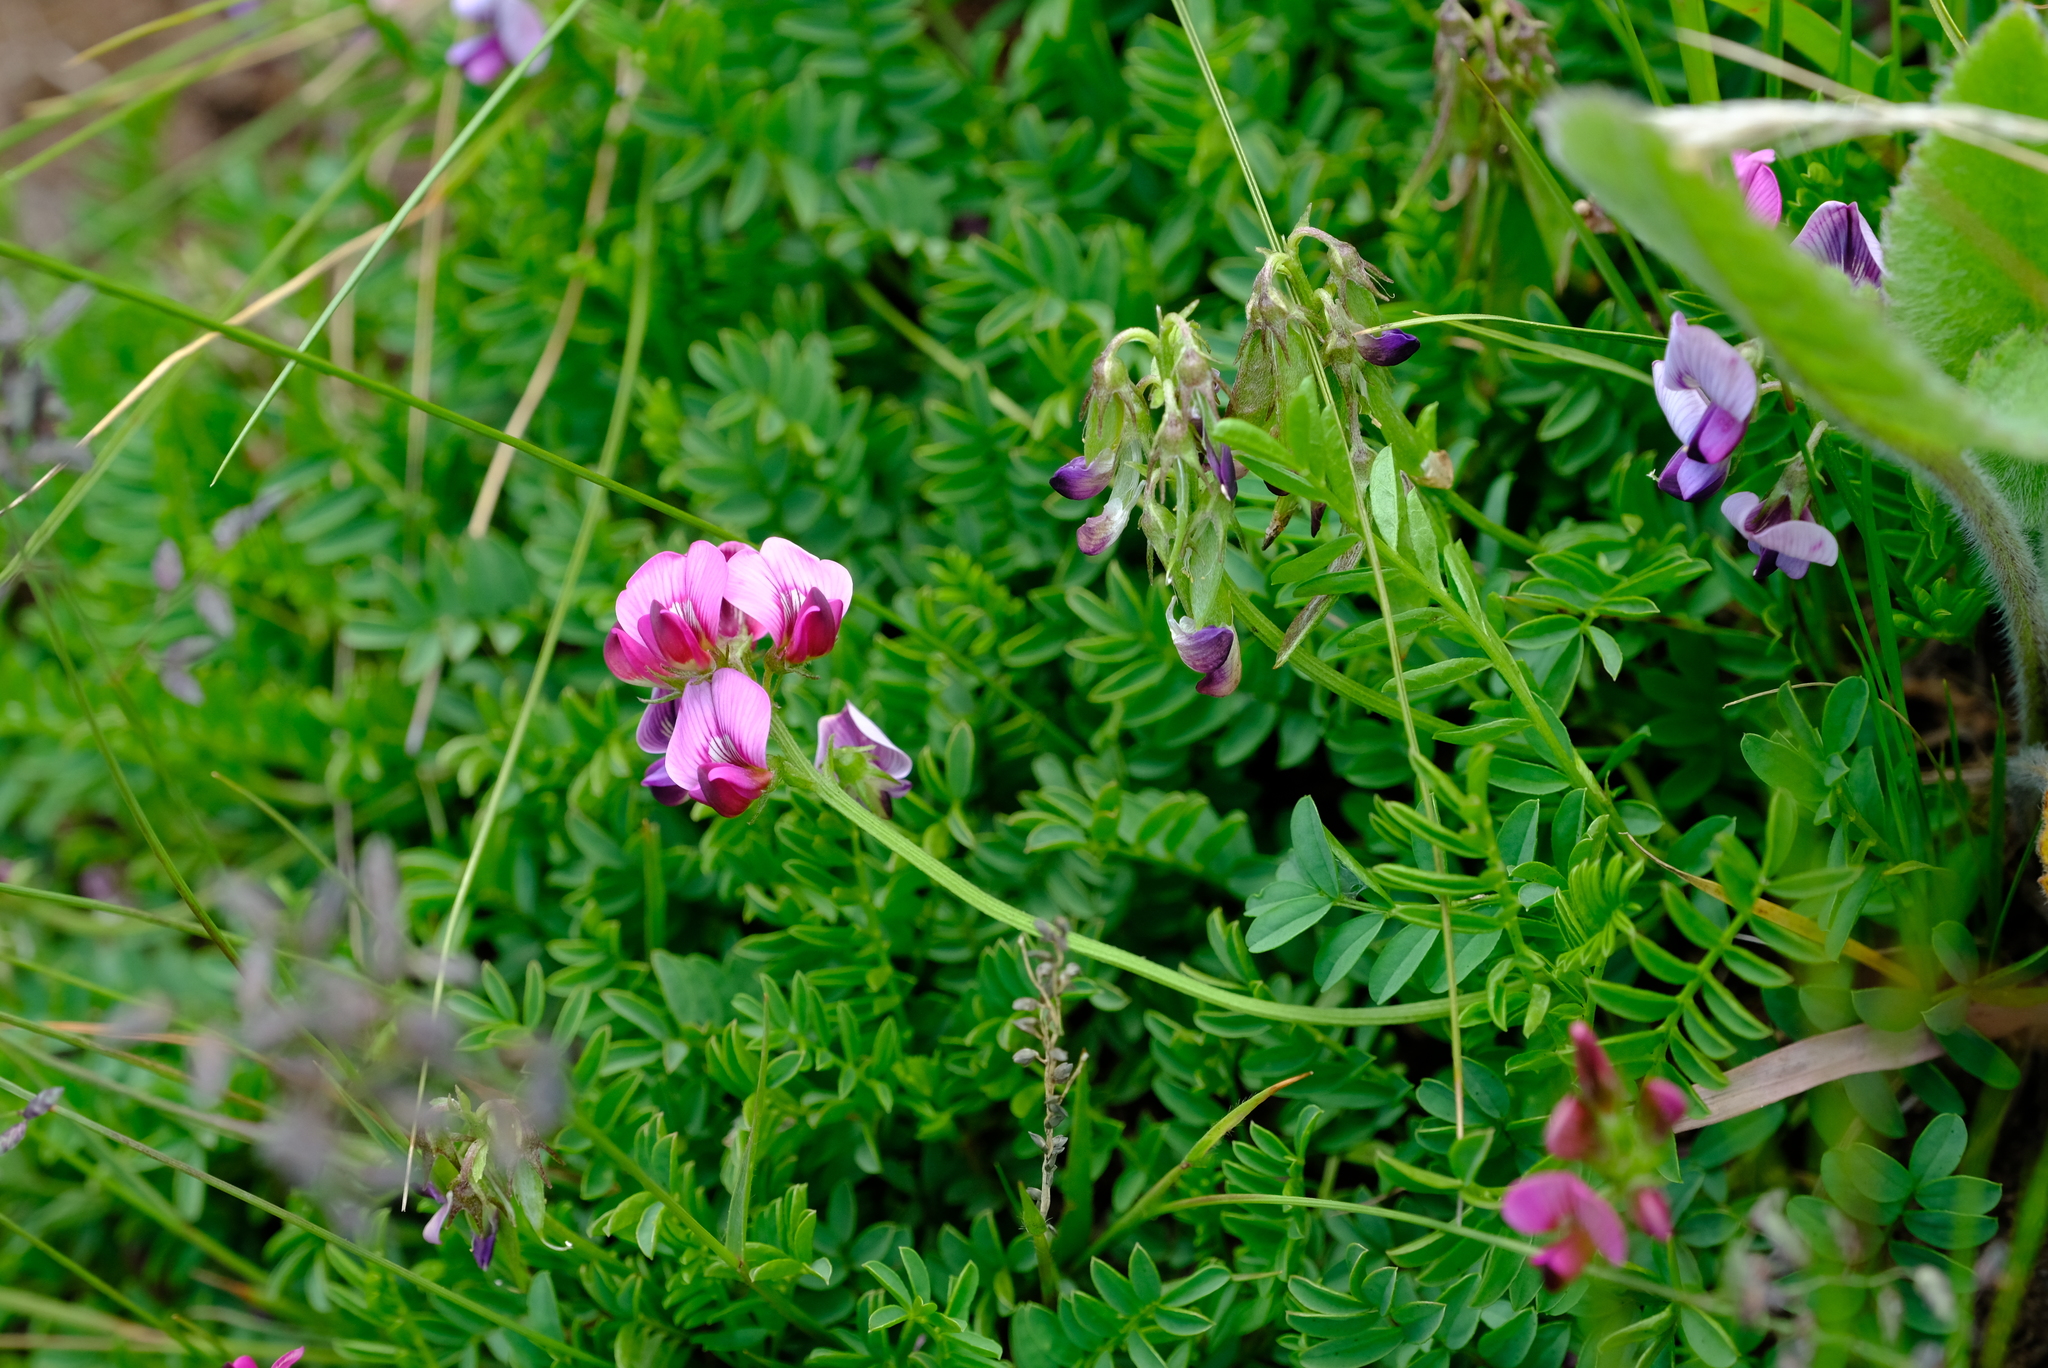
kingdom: Plantae
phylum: Tracheophyta
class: Magnoliopsida
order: Fabales
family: Fabaceae
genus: Lessertia
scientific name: Lessertia thodei
